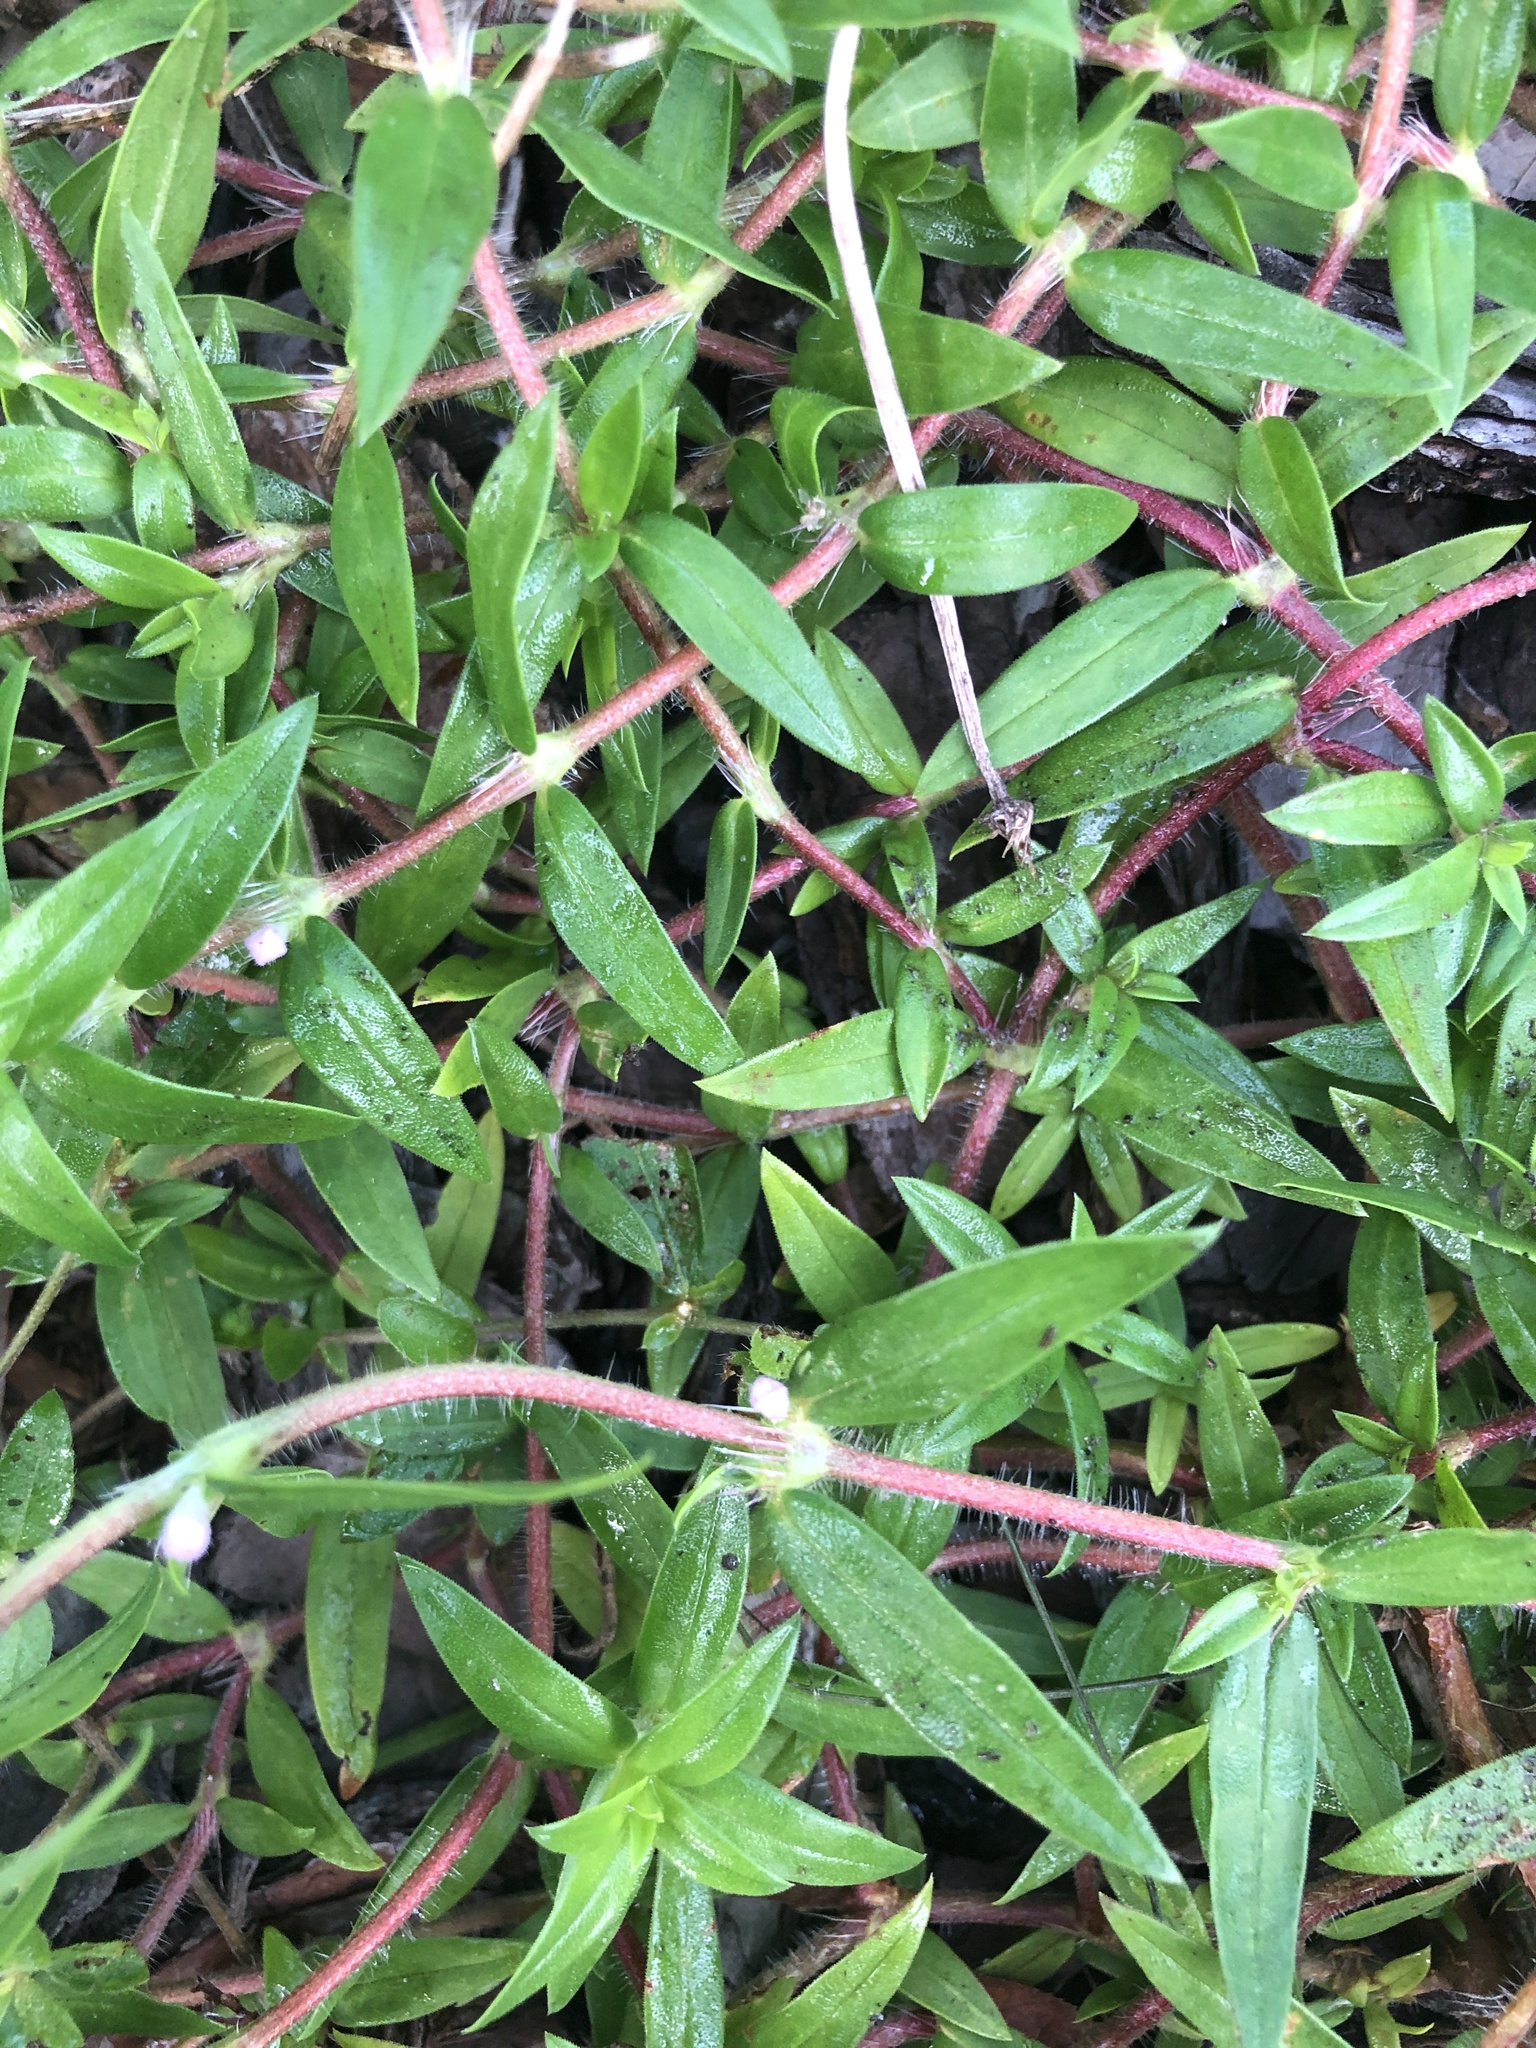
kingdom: Plantae
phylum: Tracheophyta
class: Magnoliopsida
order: Gentianales
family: Rubiaceae
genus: Hexasepalum
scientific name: Hexasepalum teres
